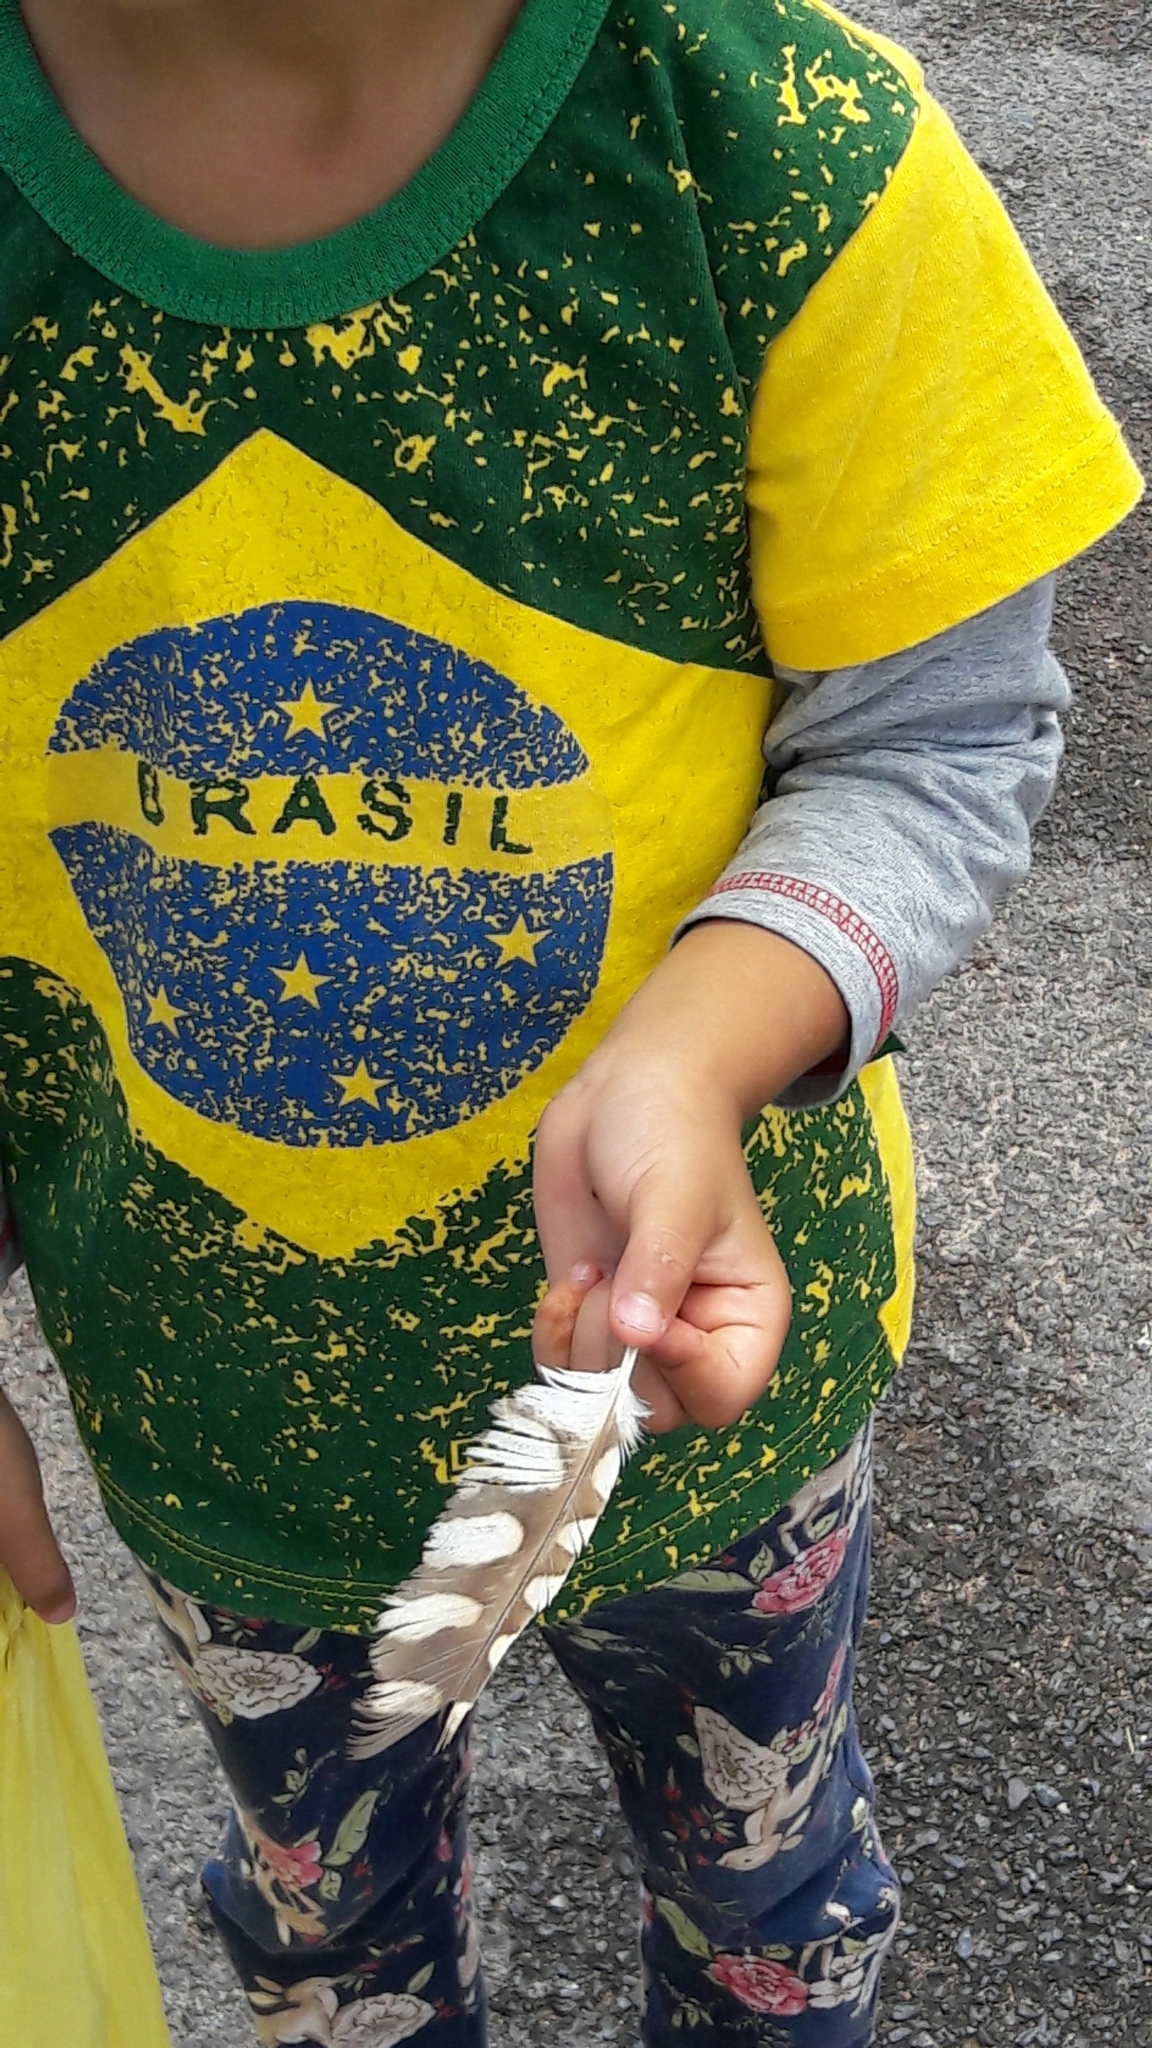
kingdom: Animalia
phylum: Chordata
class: Aves
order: Strigiformes
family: Strigidae
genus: Athene
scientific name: Athene cunicularia
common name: Burrowing owl
